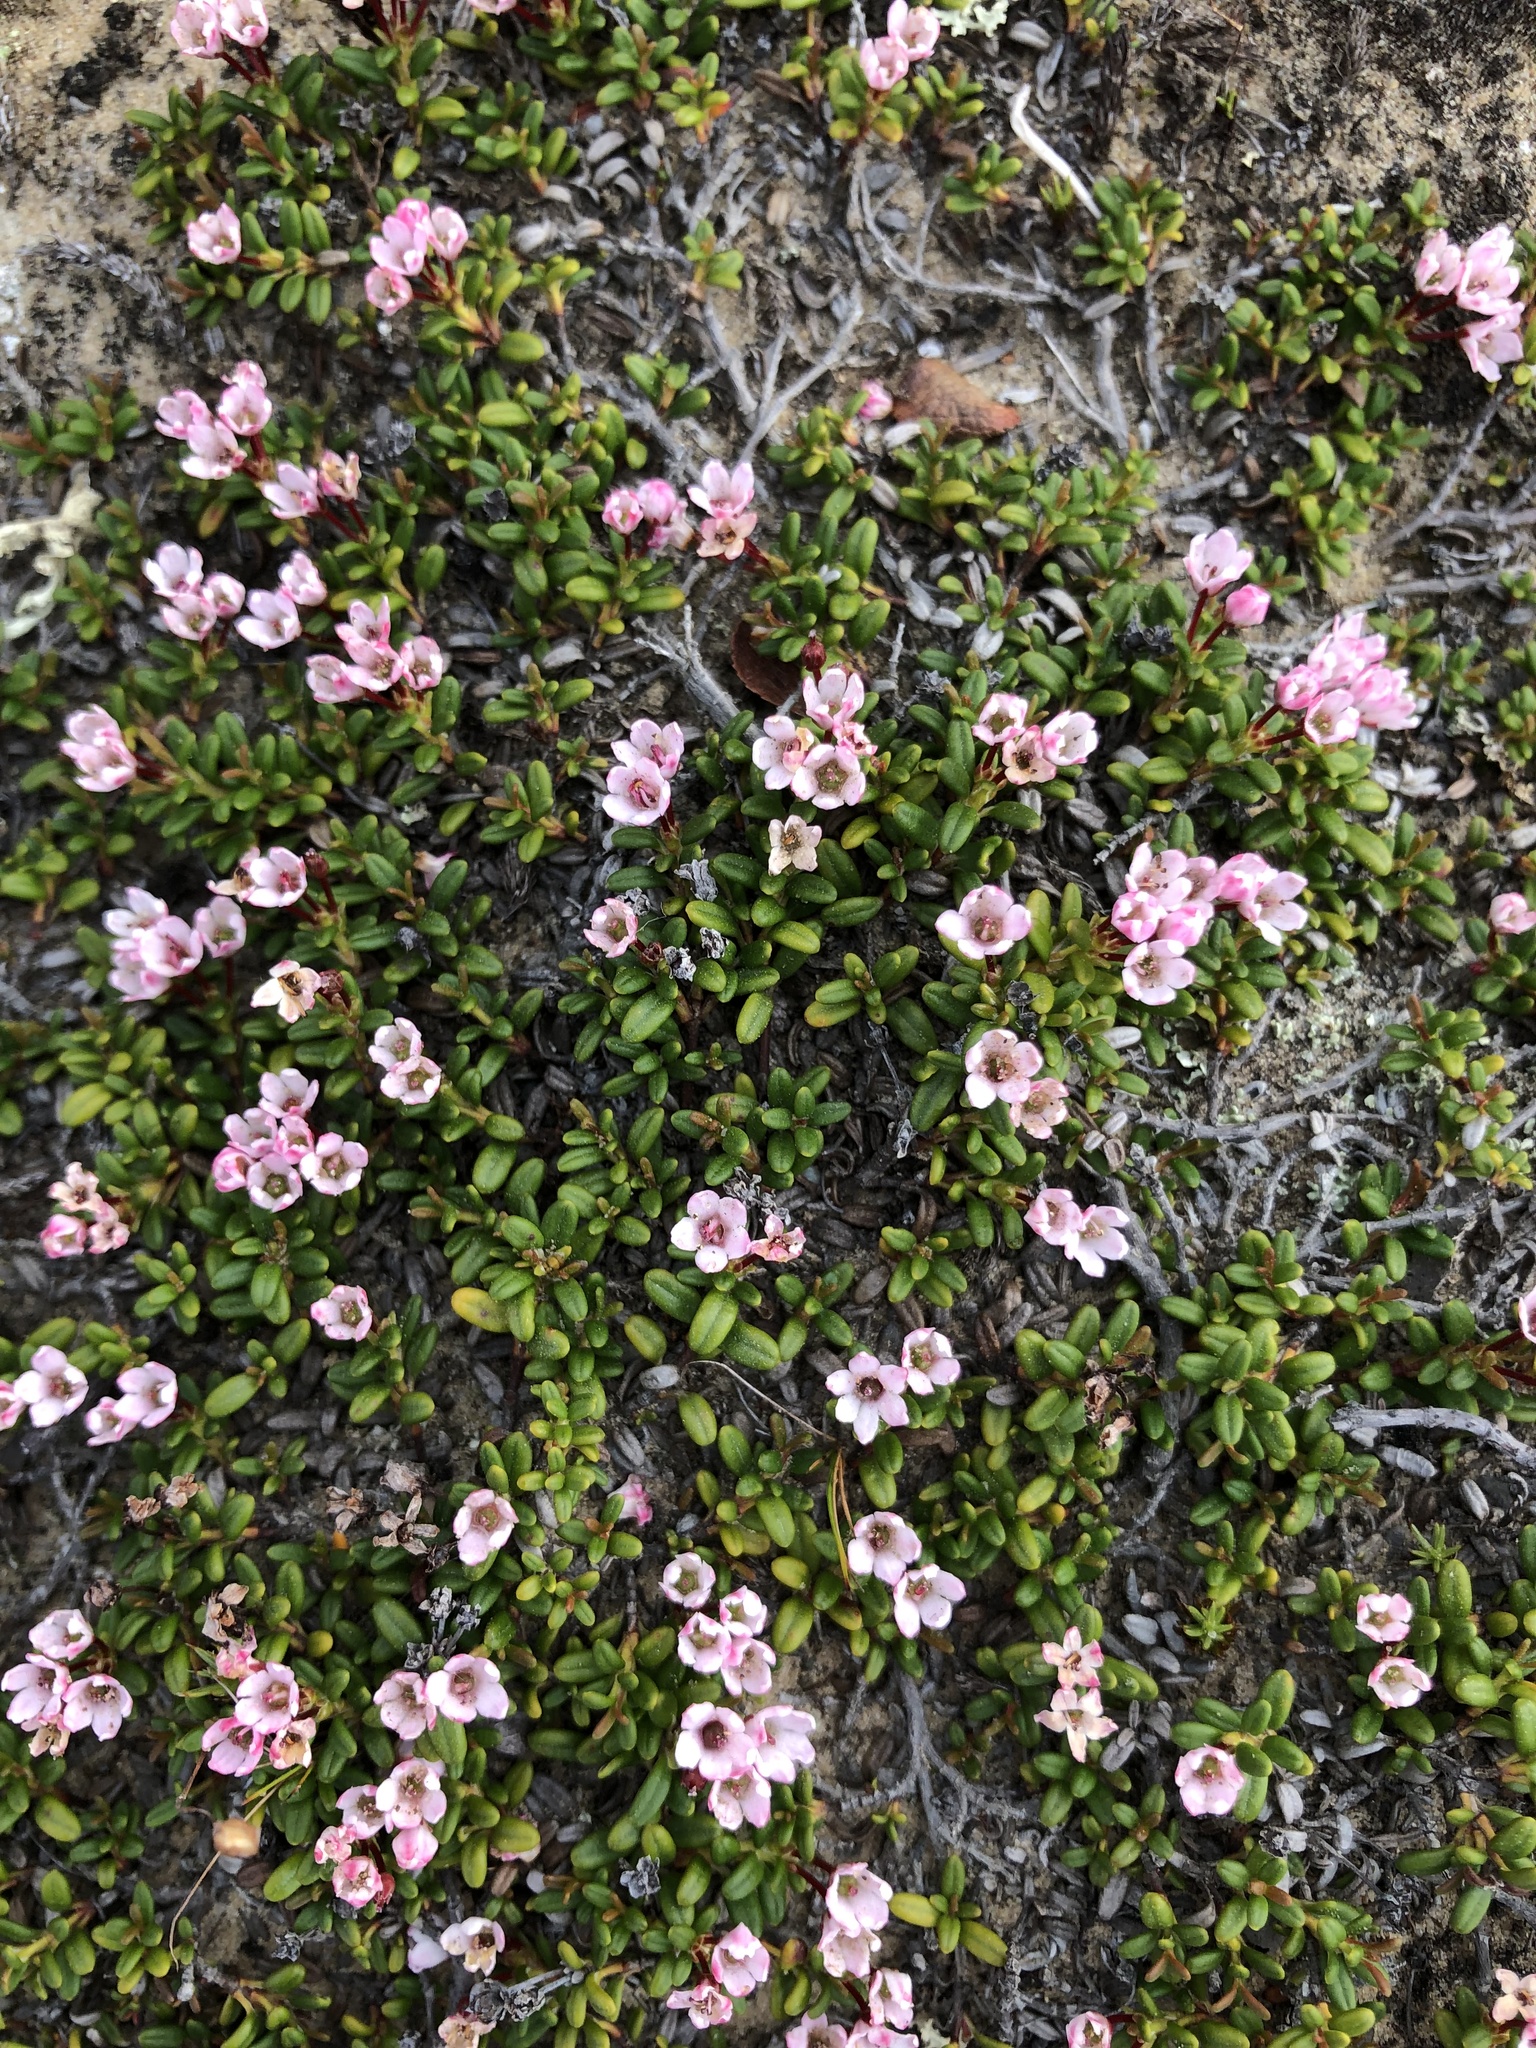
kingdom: Plantae
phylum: Tracheophyta
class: Magnoliopsida
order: Ericales
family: Ericaceae
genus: Kalmia
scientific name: Kalmia procumbens
